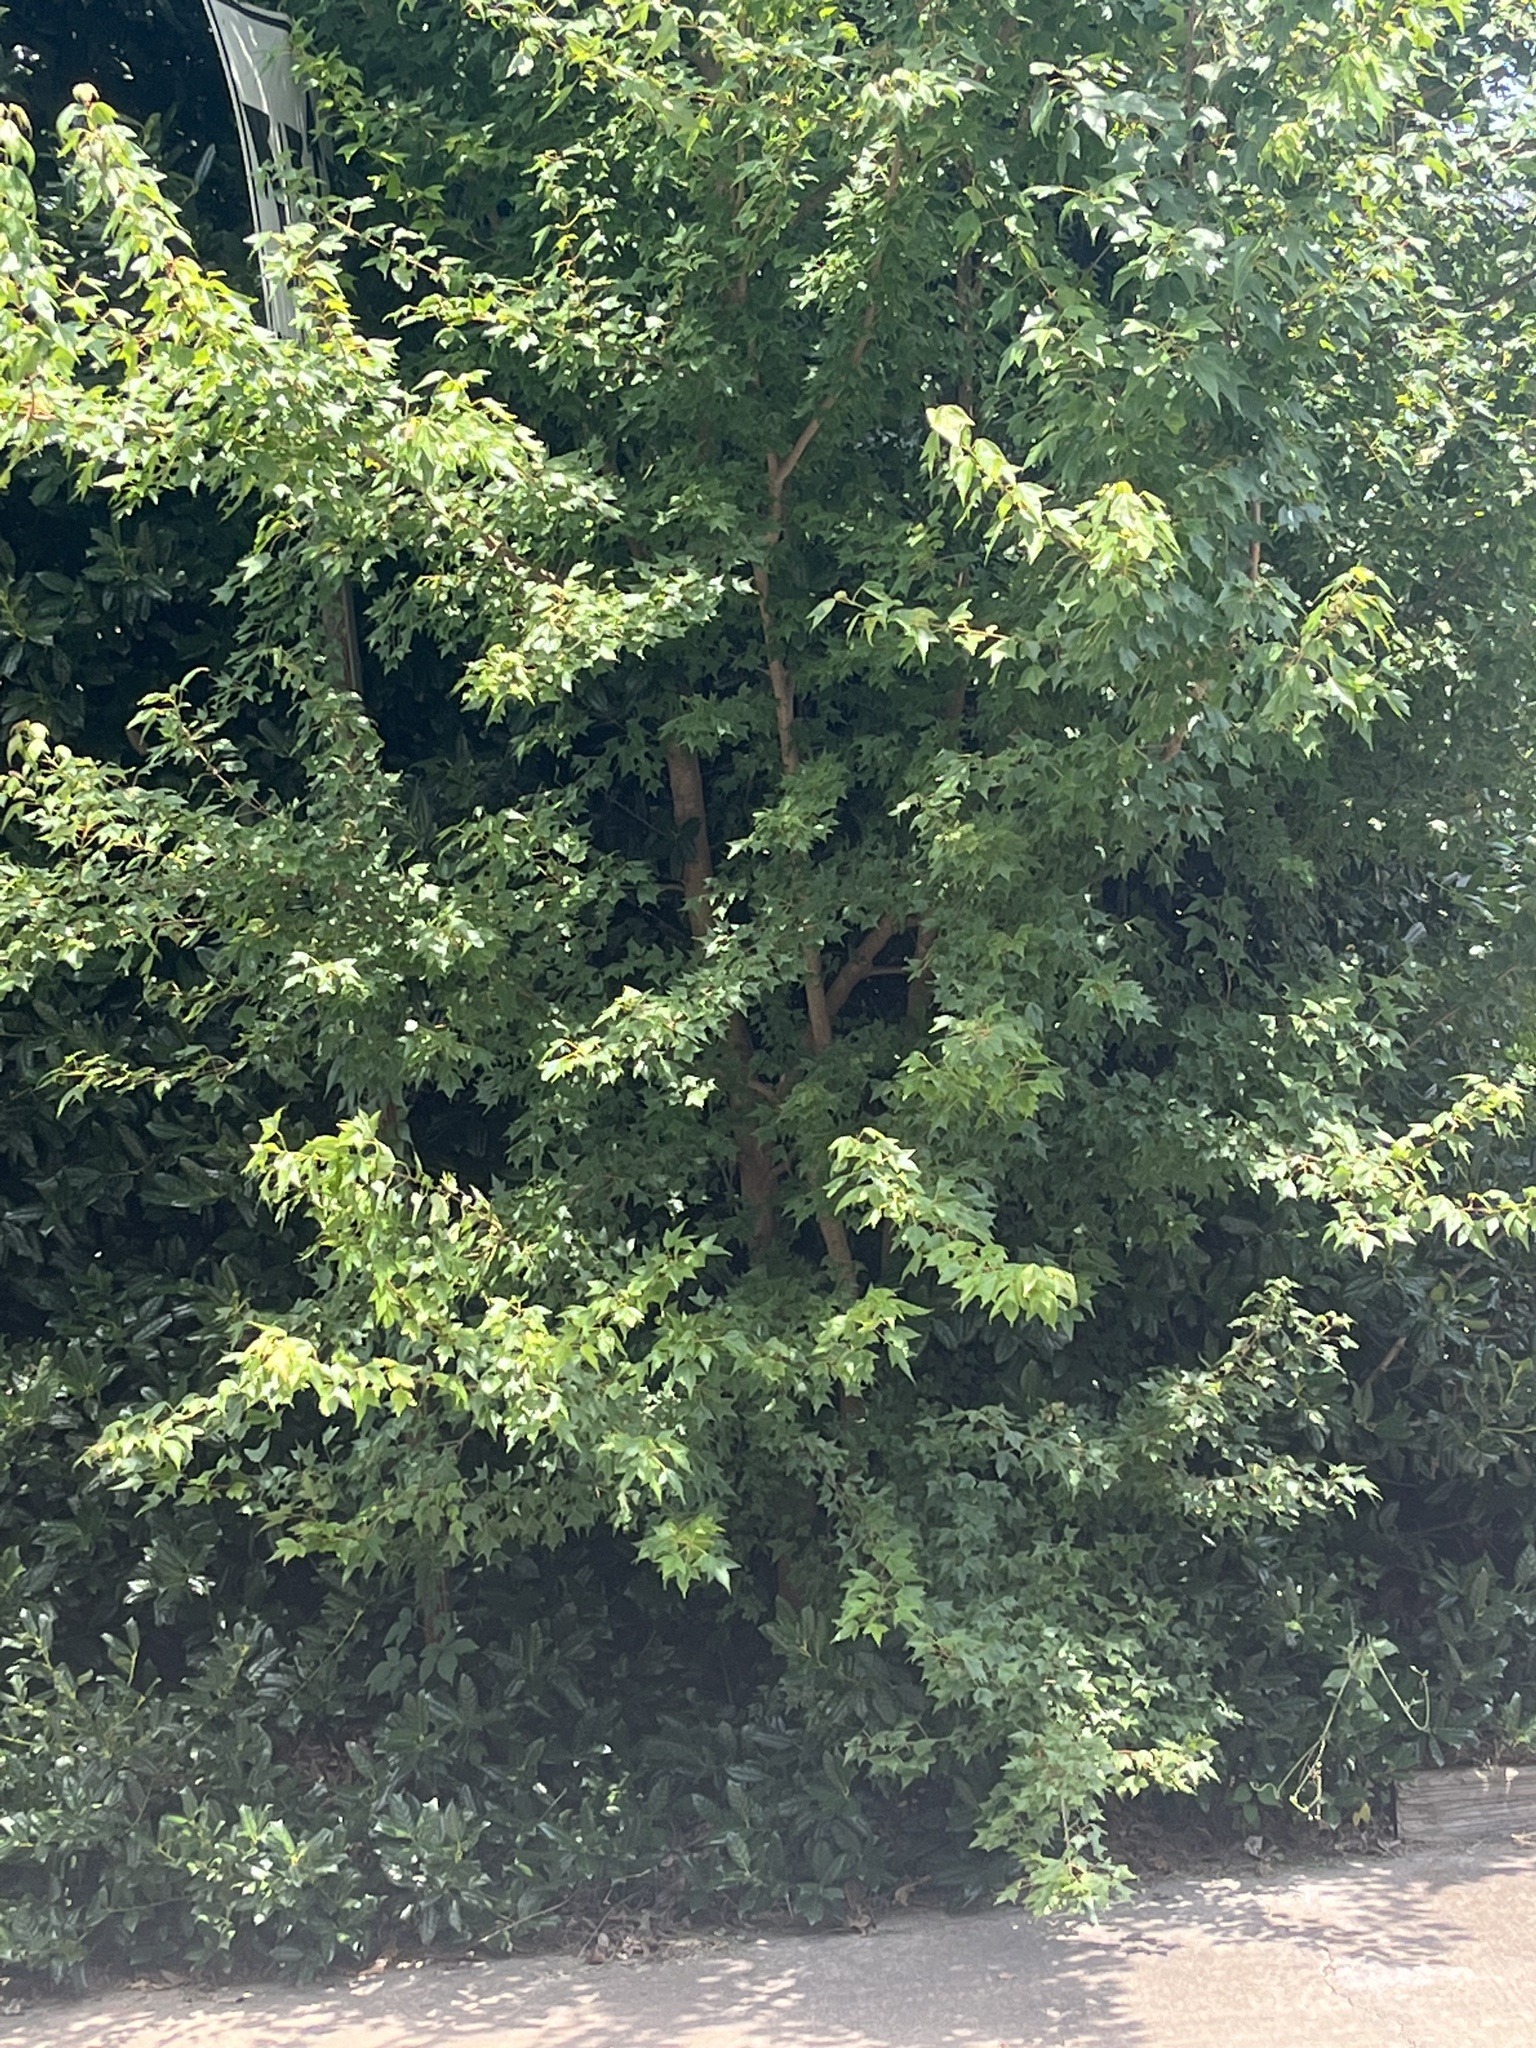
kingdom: Plantae
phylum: Tracheophyta
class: Magnoliopsida
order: Sapindales
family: Sapindaceae
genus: Acer
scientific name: Acer buergerianum
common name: Trident maple
